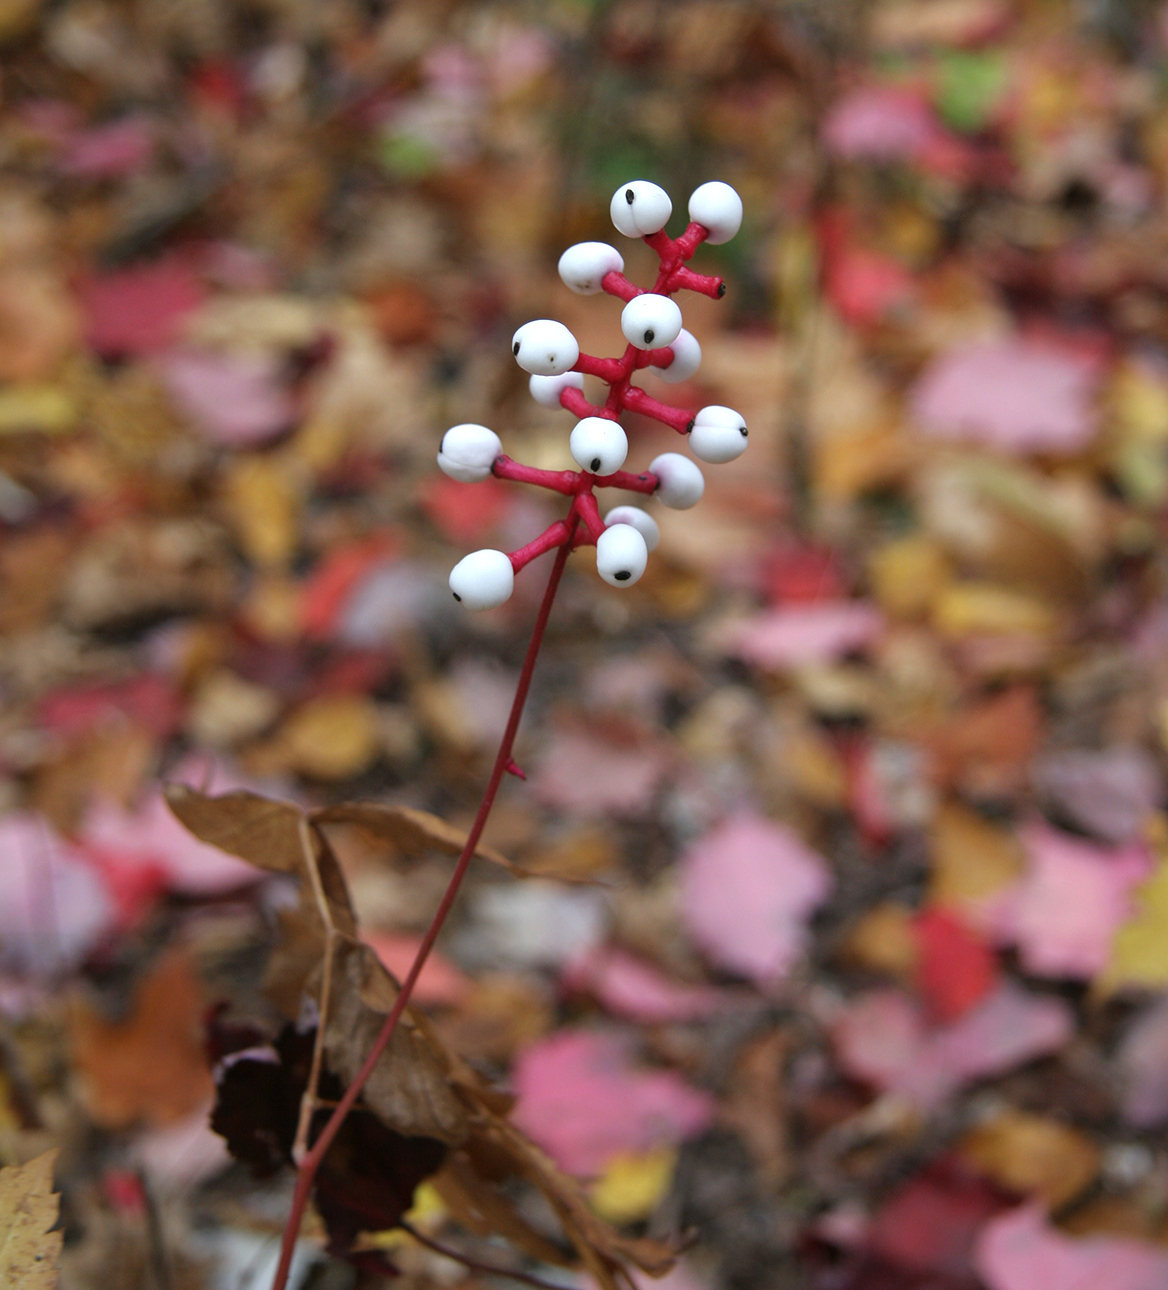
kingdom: Plantae
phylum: Tracheophyta
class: Magnoliopsida
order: Ranunculales
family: Ranunculaceae
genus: Actaea
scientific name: Actaea pachypoda
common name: Doll's-eyes
